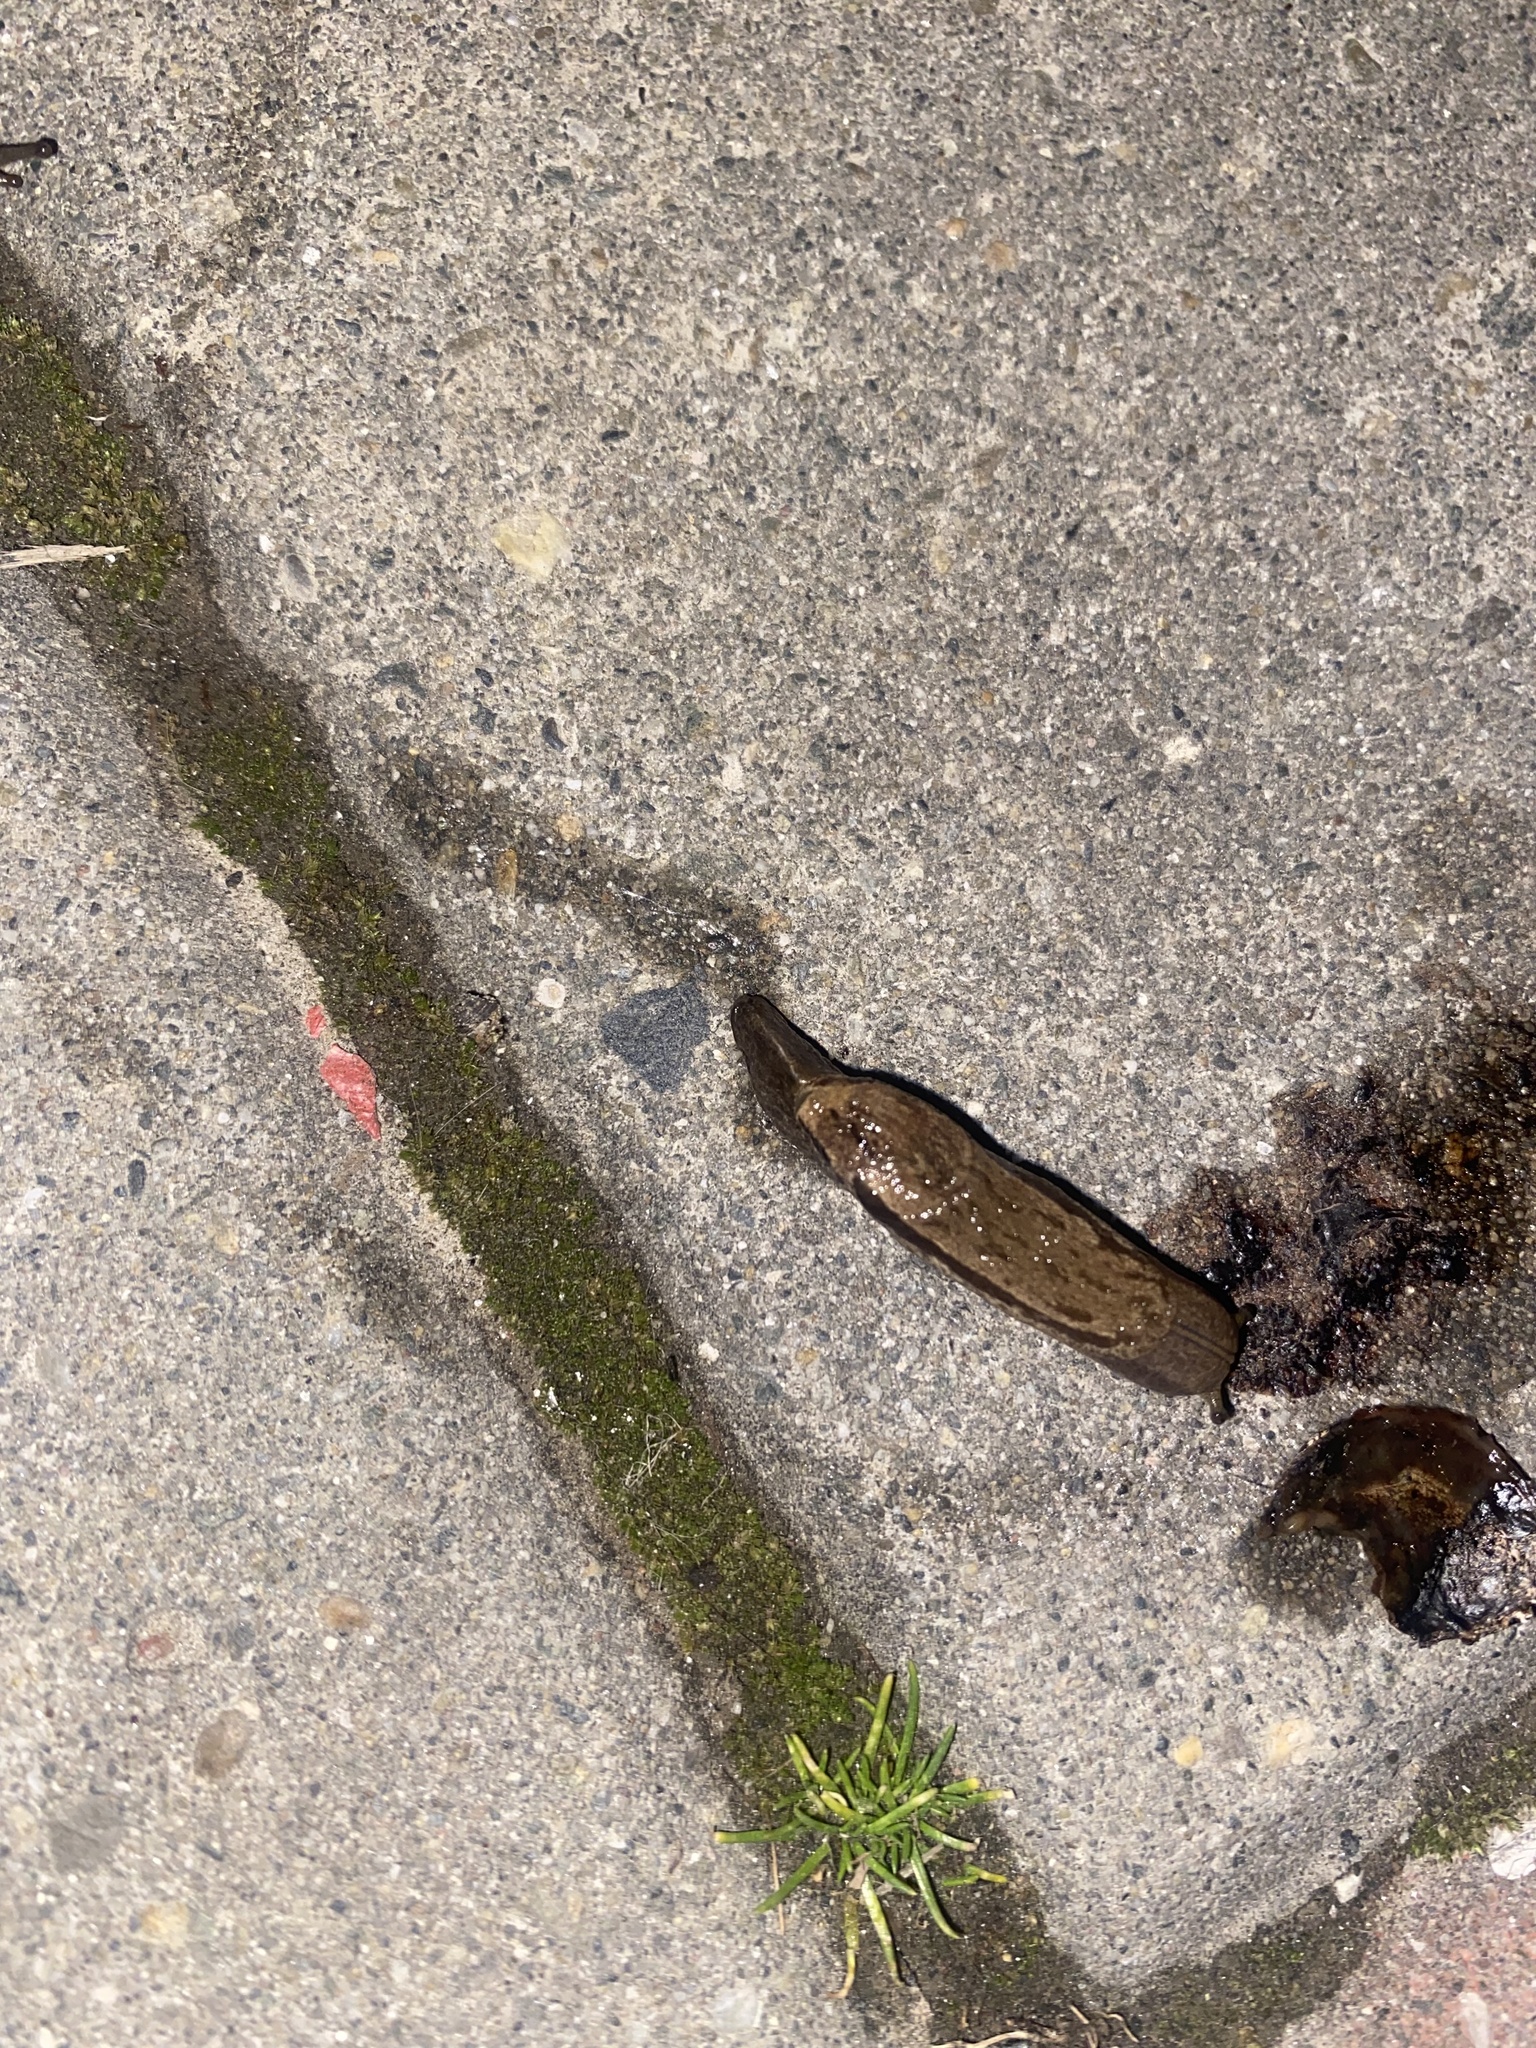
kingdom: Animalia
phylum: Mollusca
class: Gastropoda
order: Stylommatophora
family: Parmacellidae
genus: Drusia
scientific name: Drusia ibera
